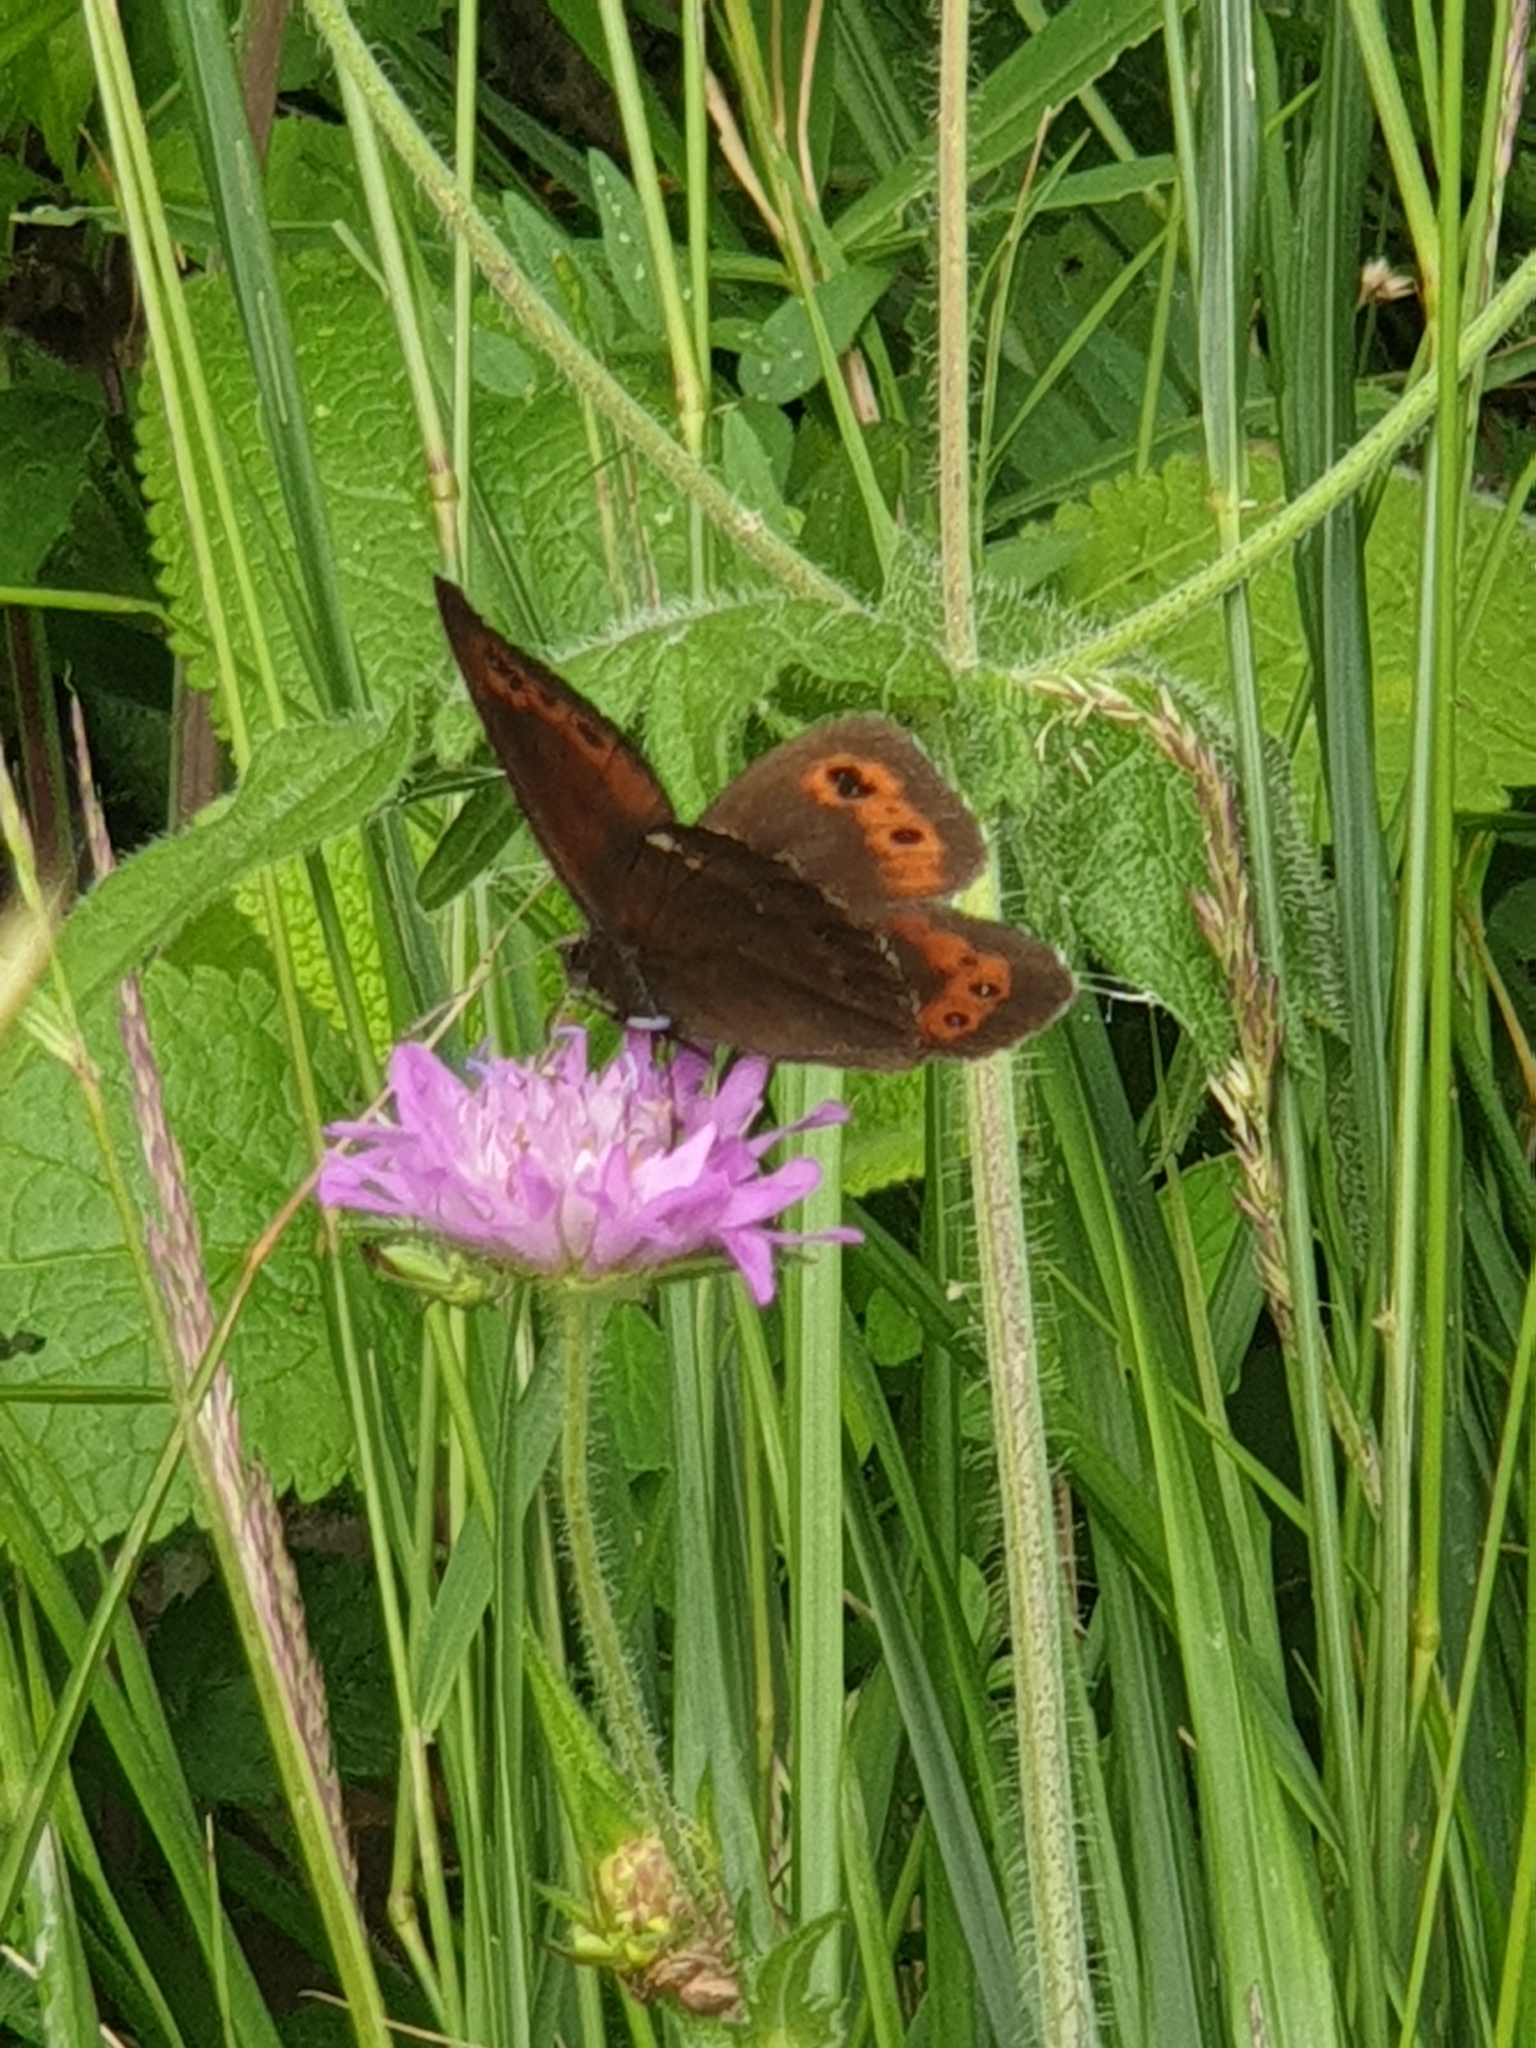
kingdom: Animalia
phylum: Arthropoda
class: Insecta
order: Lepidoptera
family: Nymphalidae
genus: Erebia
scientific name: Erebia ligea
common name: Arran brown
